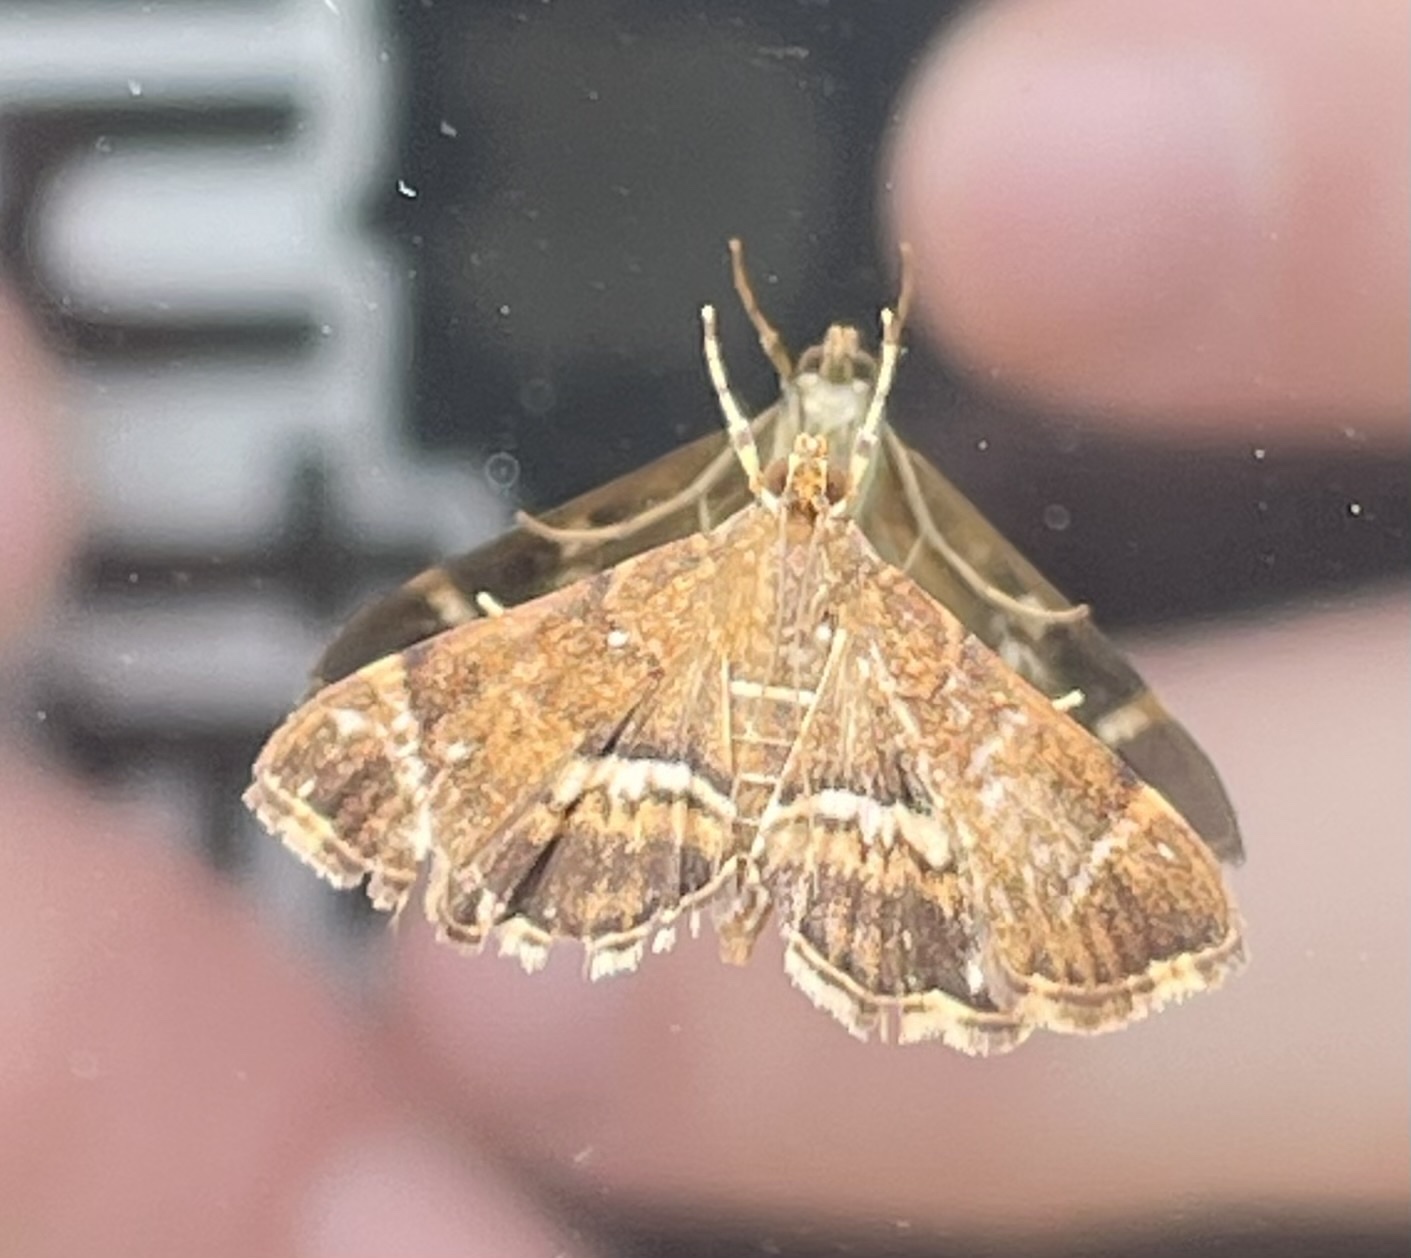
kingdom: Animalia
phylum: Arthropoda
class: Insecta
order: Lepidoptera
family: Crambidae
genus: Hymenia
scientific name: Hymenia perspectalis
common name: Spotted beet webworm
